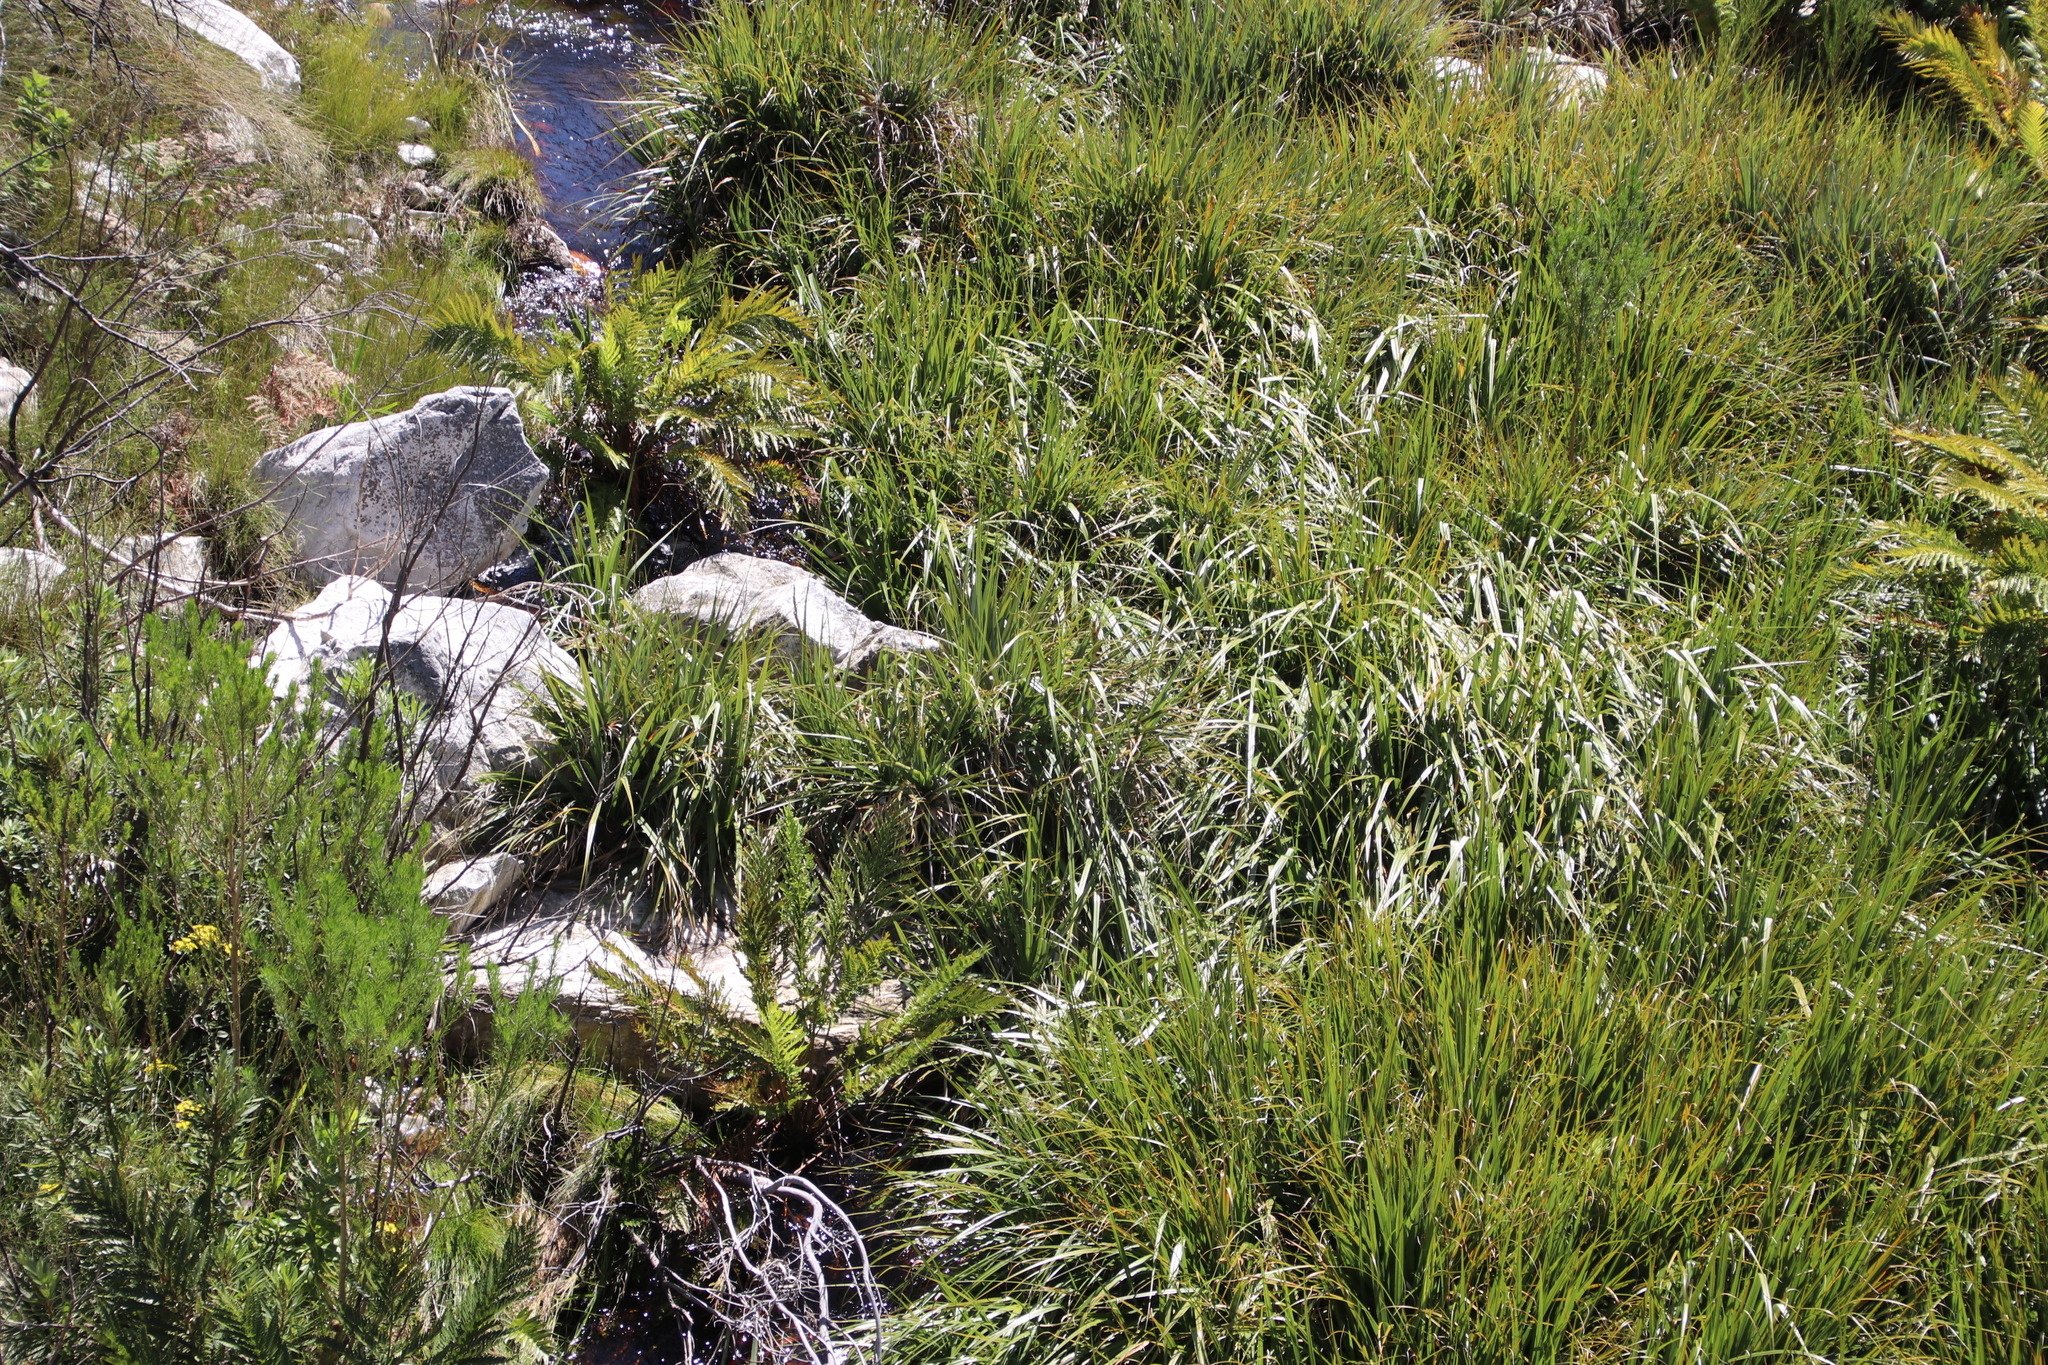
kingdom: Plantae
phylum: Tracheophyta
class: Polypodiopsida
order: Osmundales
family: Osmundaceae
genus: Todea
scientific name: Todea barbara
